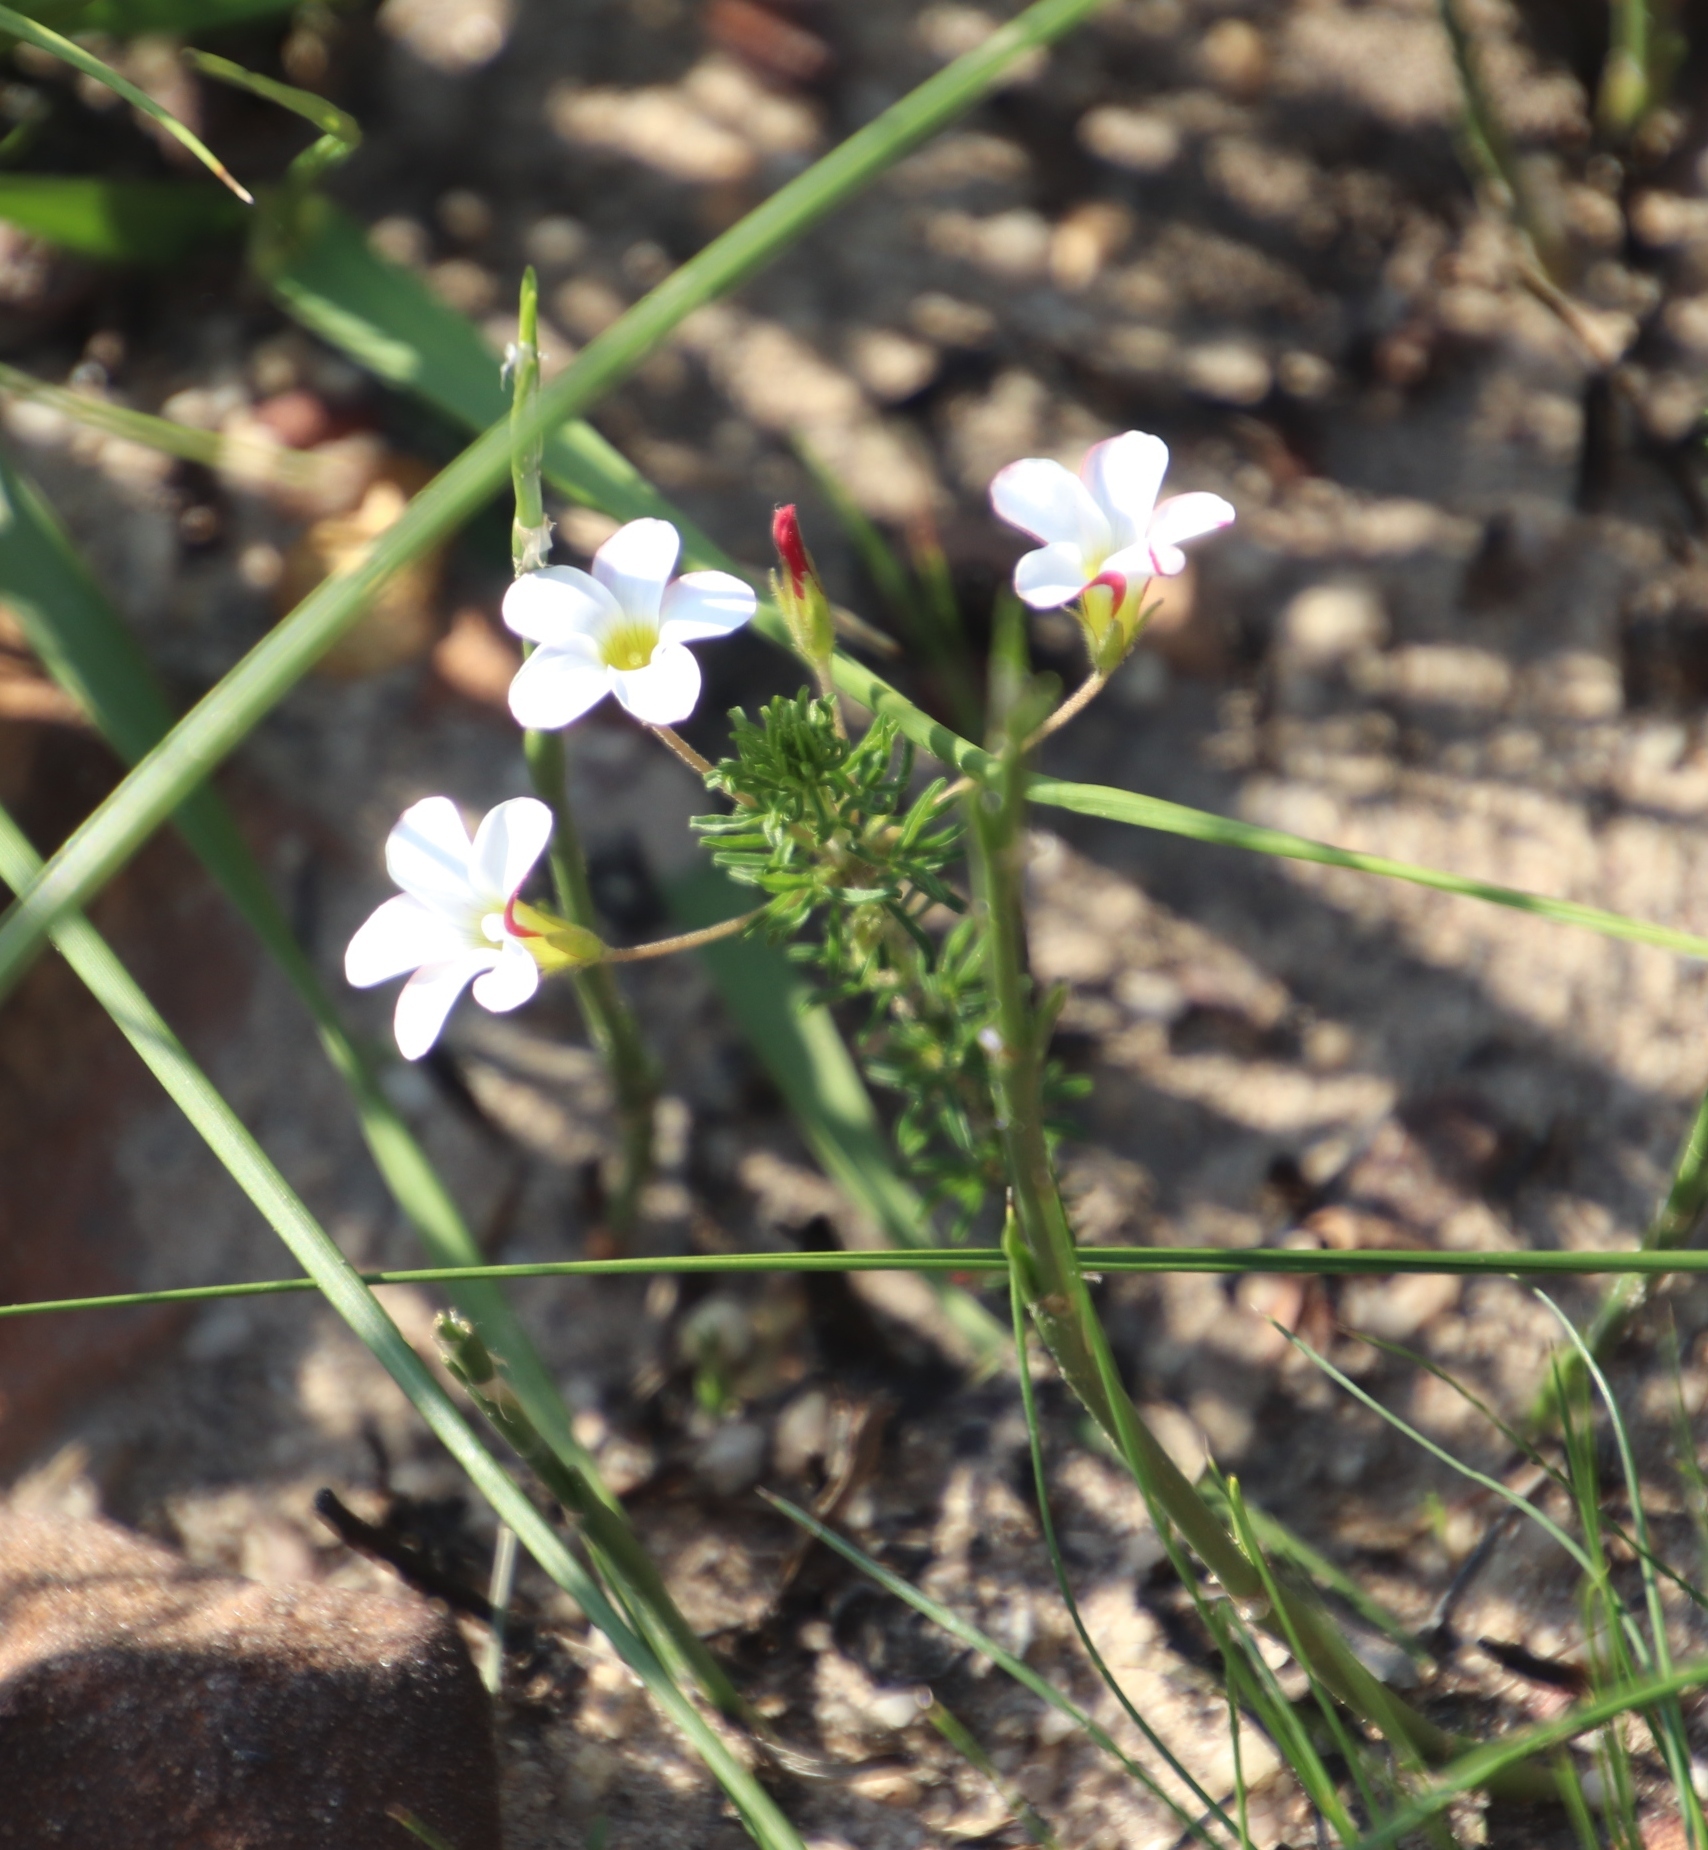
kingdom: Plantae
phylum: Tracheophyta
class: Magnoliopsida
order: Oxalidales
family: Oxalidaceae
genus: Oxalis
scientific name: Oxalis tenuifolia
